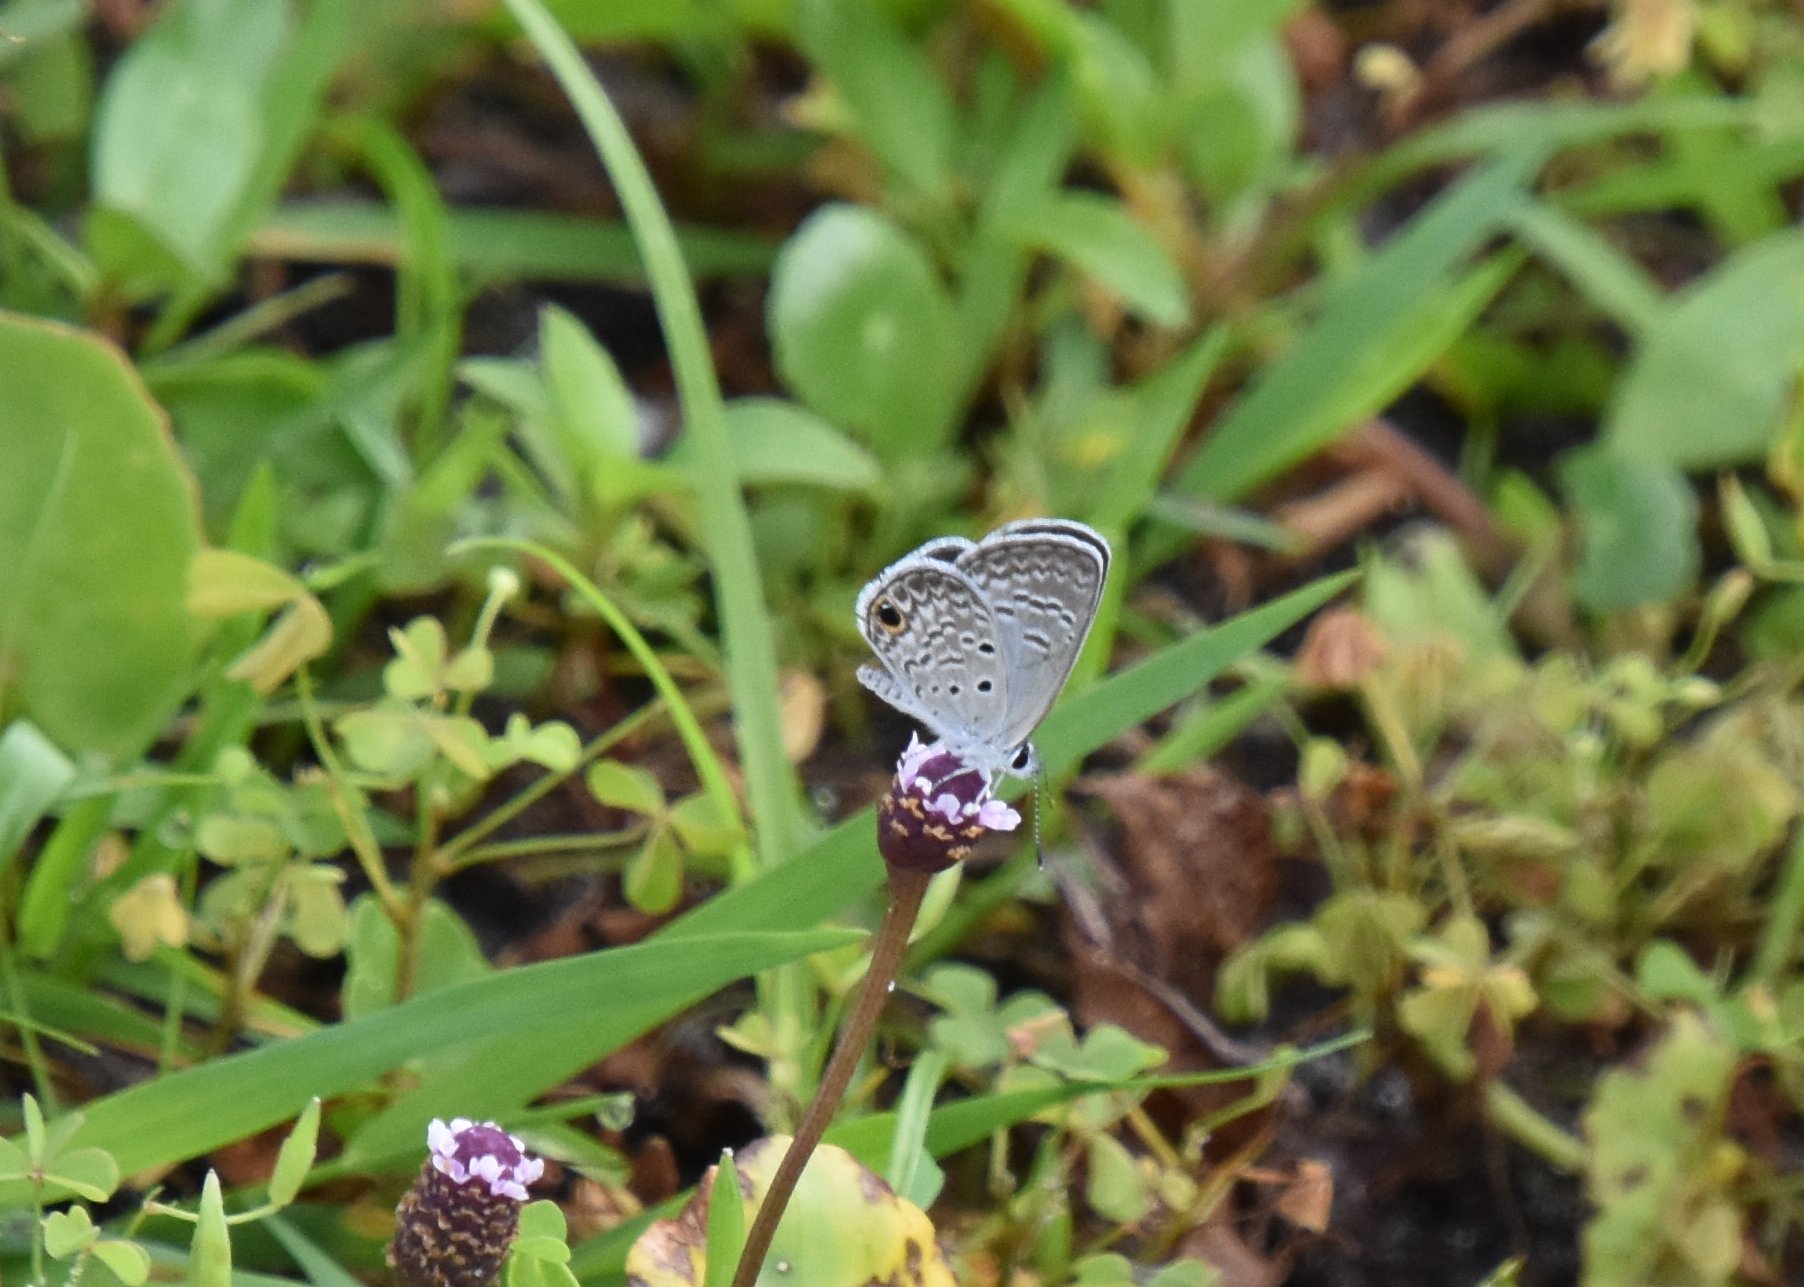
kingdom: Animalia
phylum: Arthropoda
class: Insecta
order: Lepidoptera
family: Lycaenidae
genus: Hemiargus
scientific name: Hemiargus ceraunus
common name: Ceraunus blue
